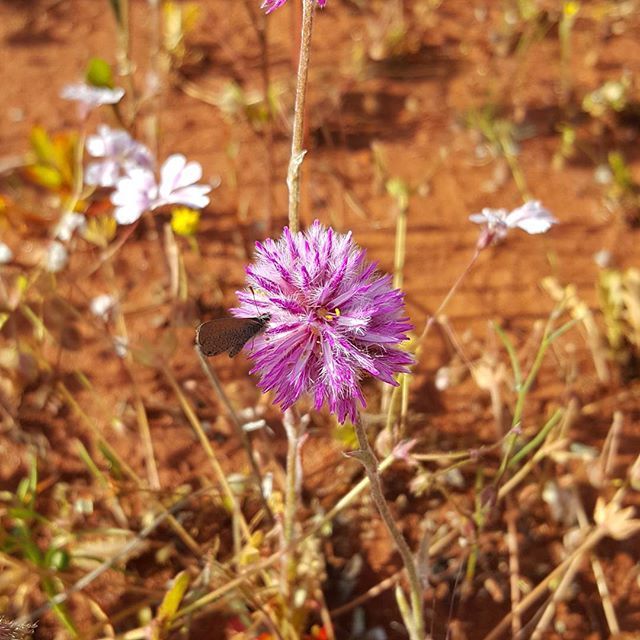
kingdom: Plantae
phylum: Tracheophyta
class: Magnoliopsida
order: Caryophyllales
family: Amaranthaceae
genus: Ptilotus
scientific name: Ptilotus helipteroides
